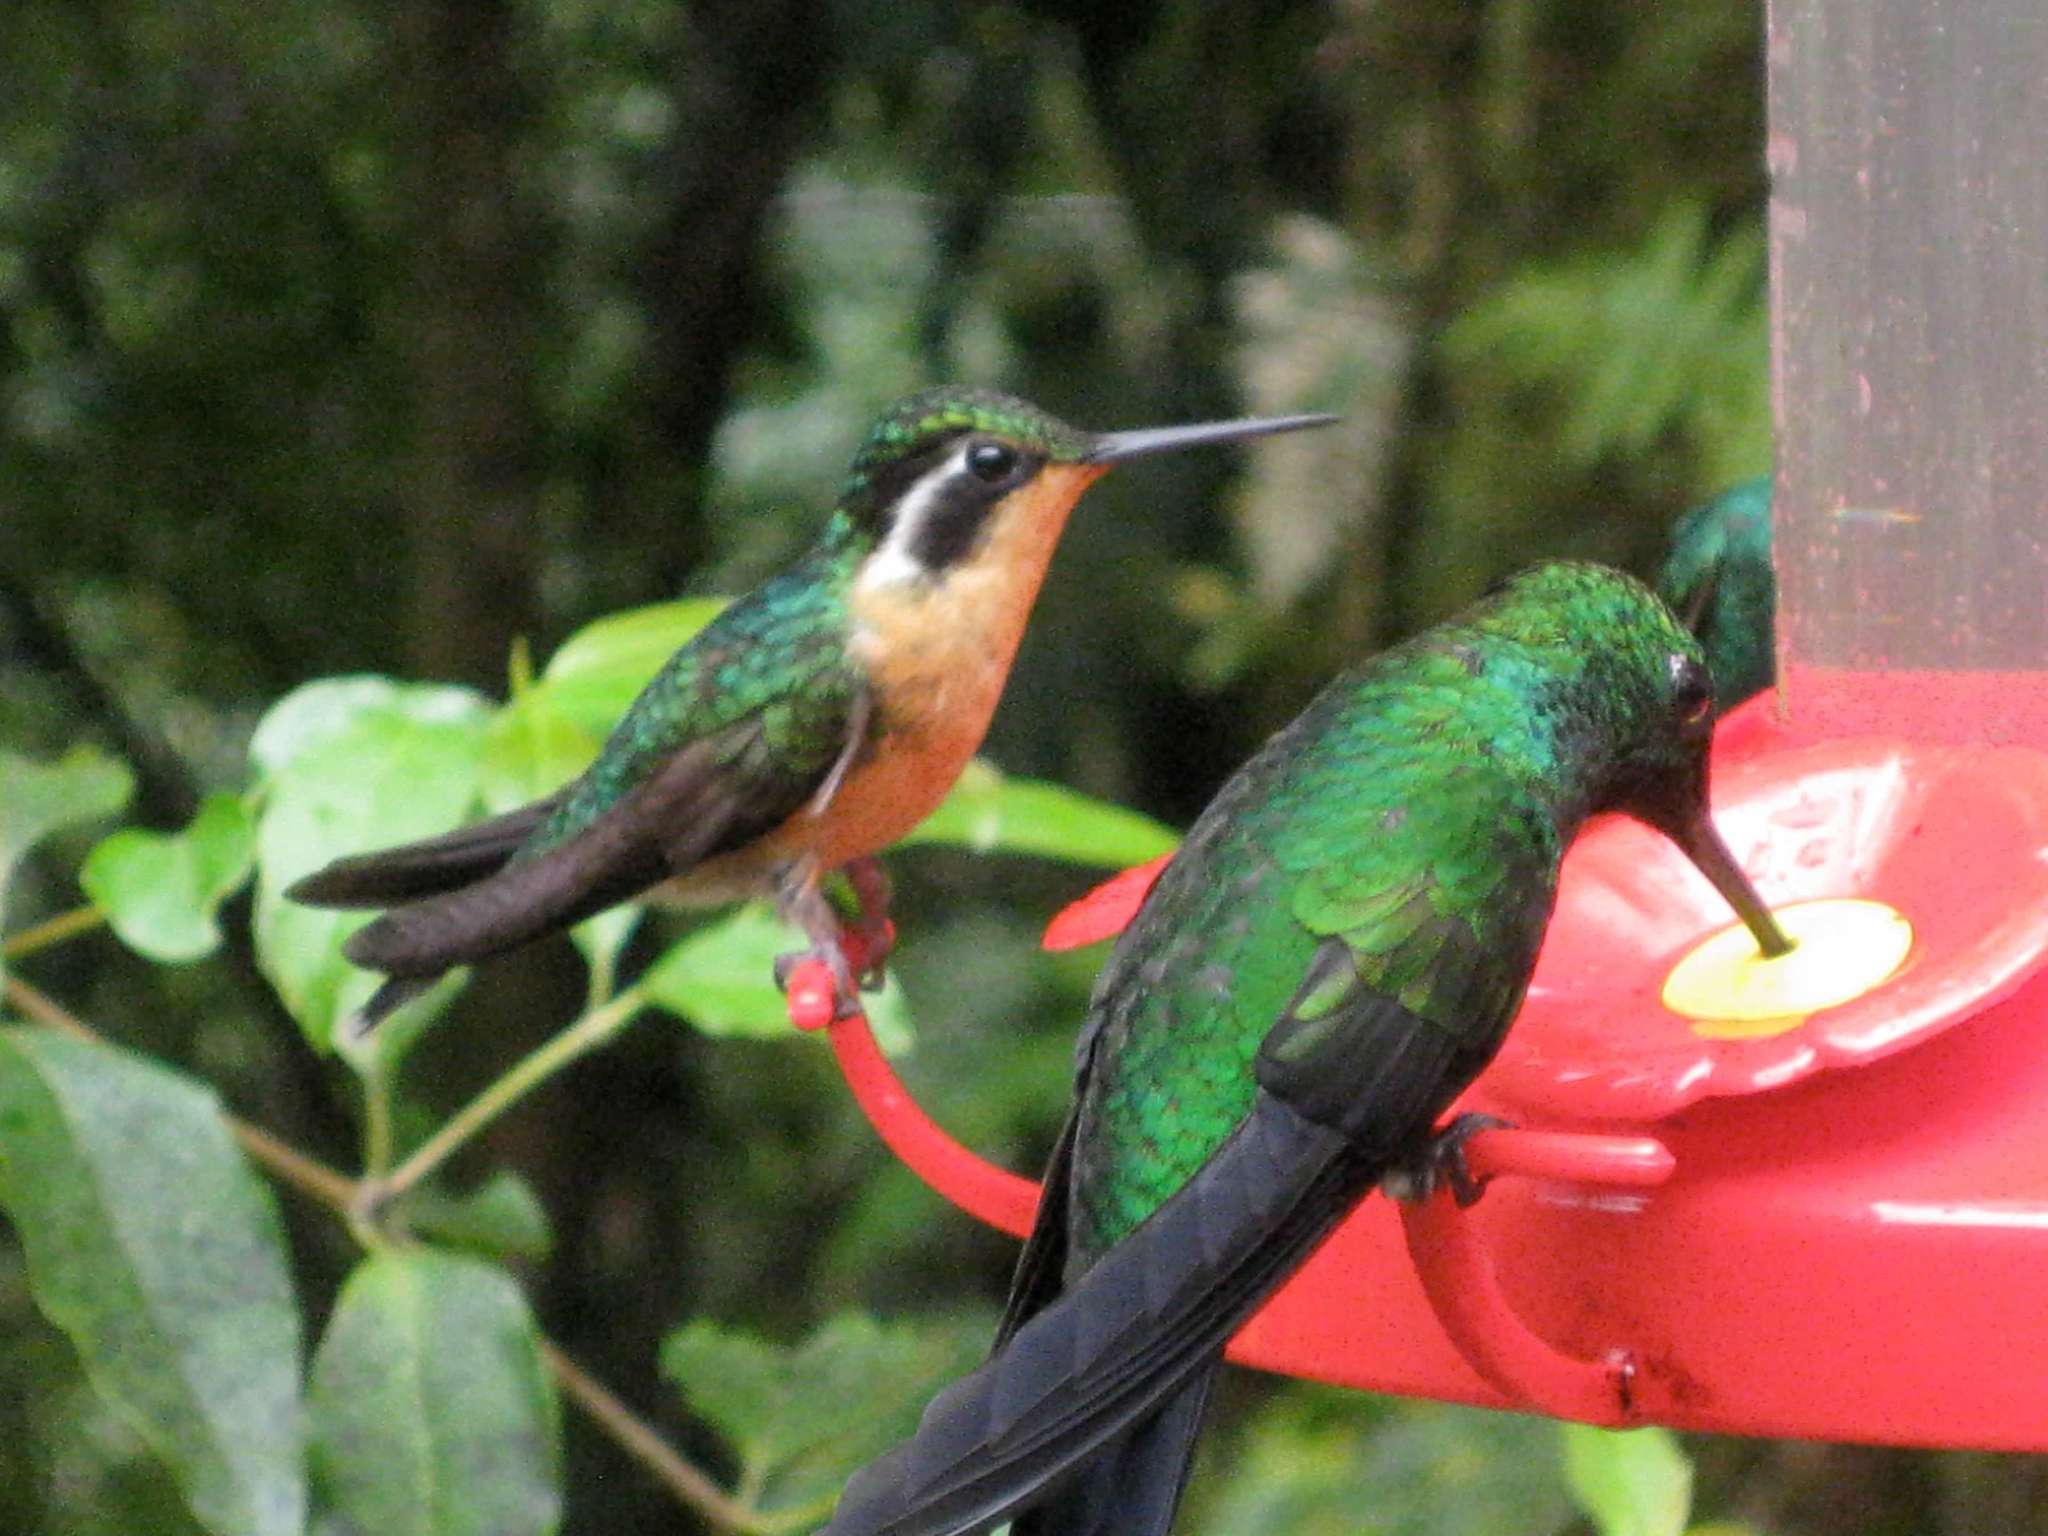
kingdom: Animalia
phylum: Chordata
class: Aves
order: Apodiformes
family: Trochilidae
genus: Lampornis
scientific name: Lampornis calolaemus
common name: Purple-throated mountain-gem
